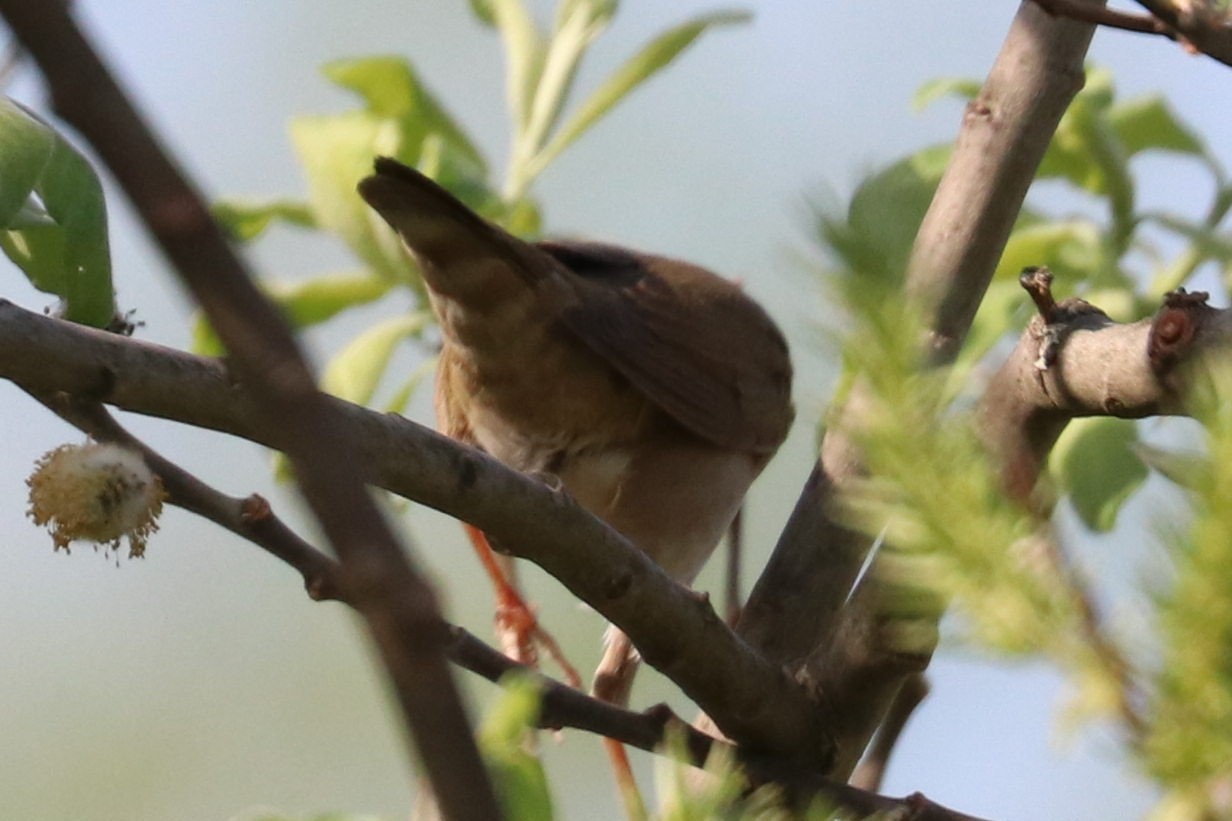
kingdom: Animalia
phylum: Chordata
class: Aves
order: Passeriformes
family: Locustellidae
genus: Locustella
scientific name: Locustella fluviatilis
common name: River warbler
